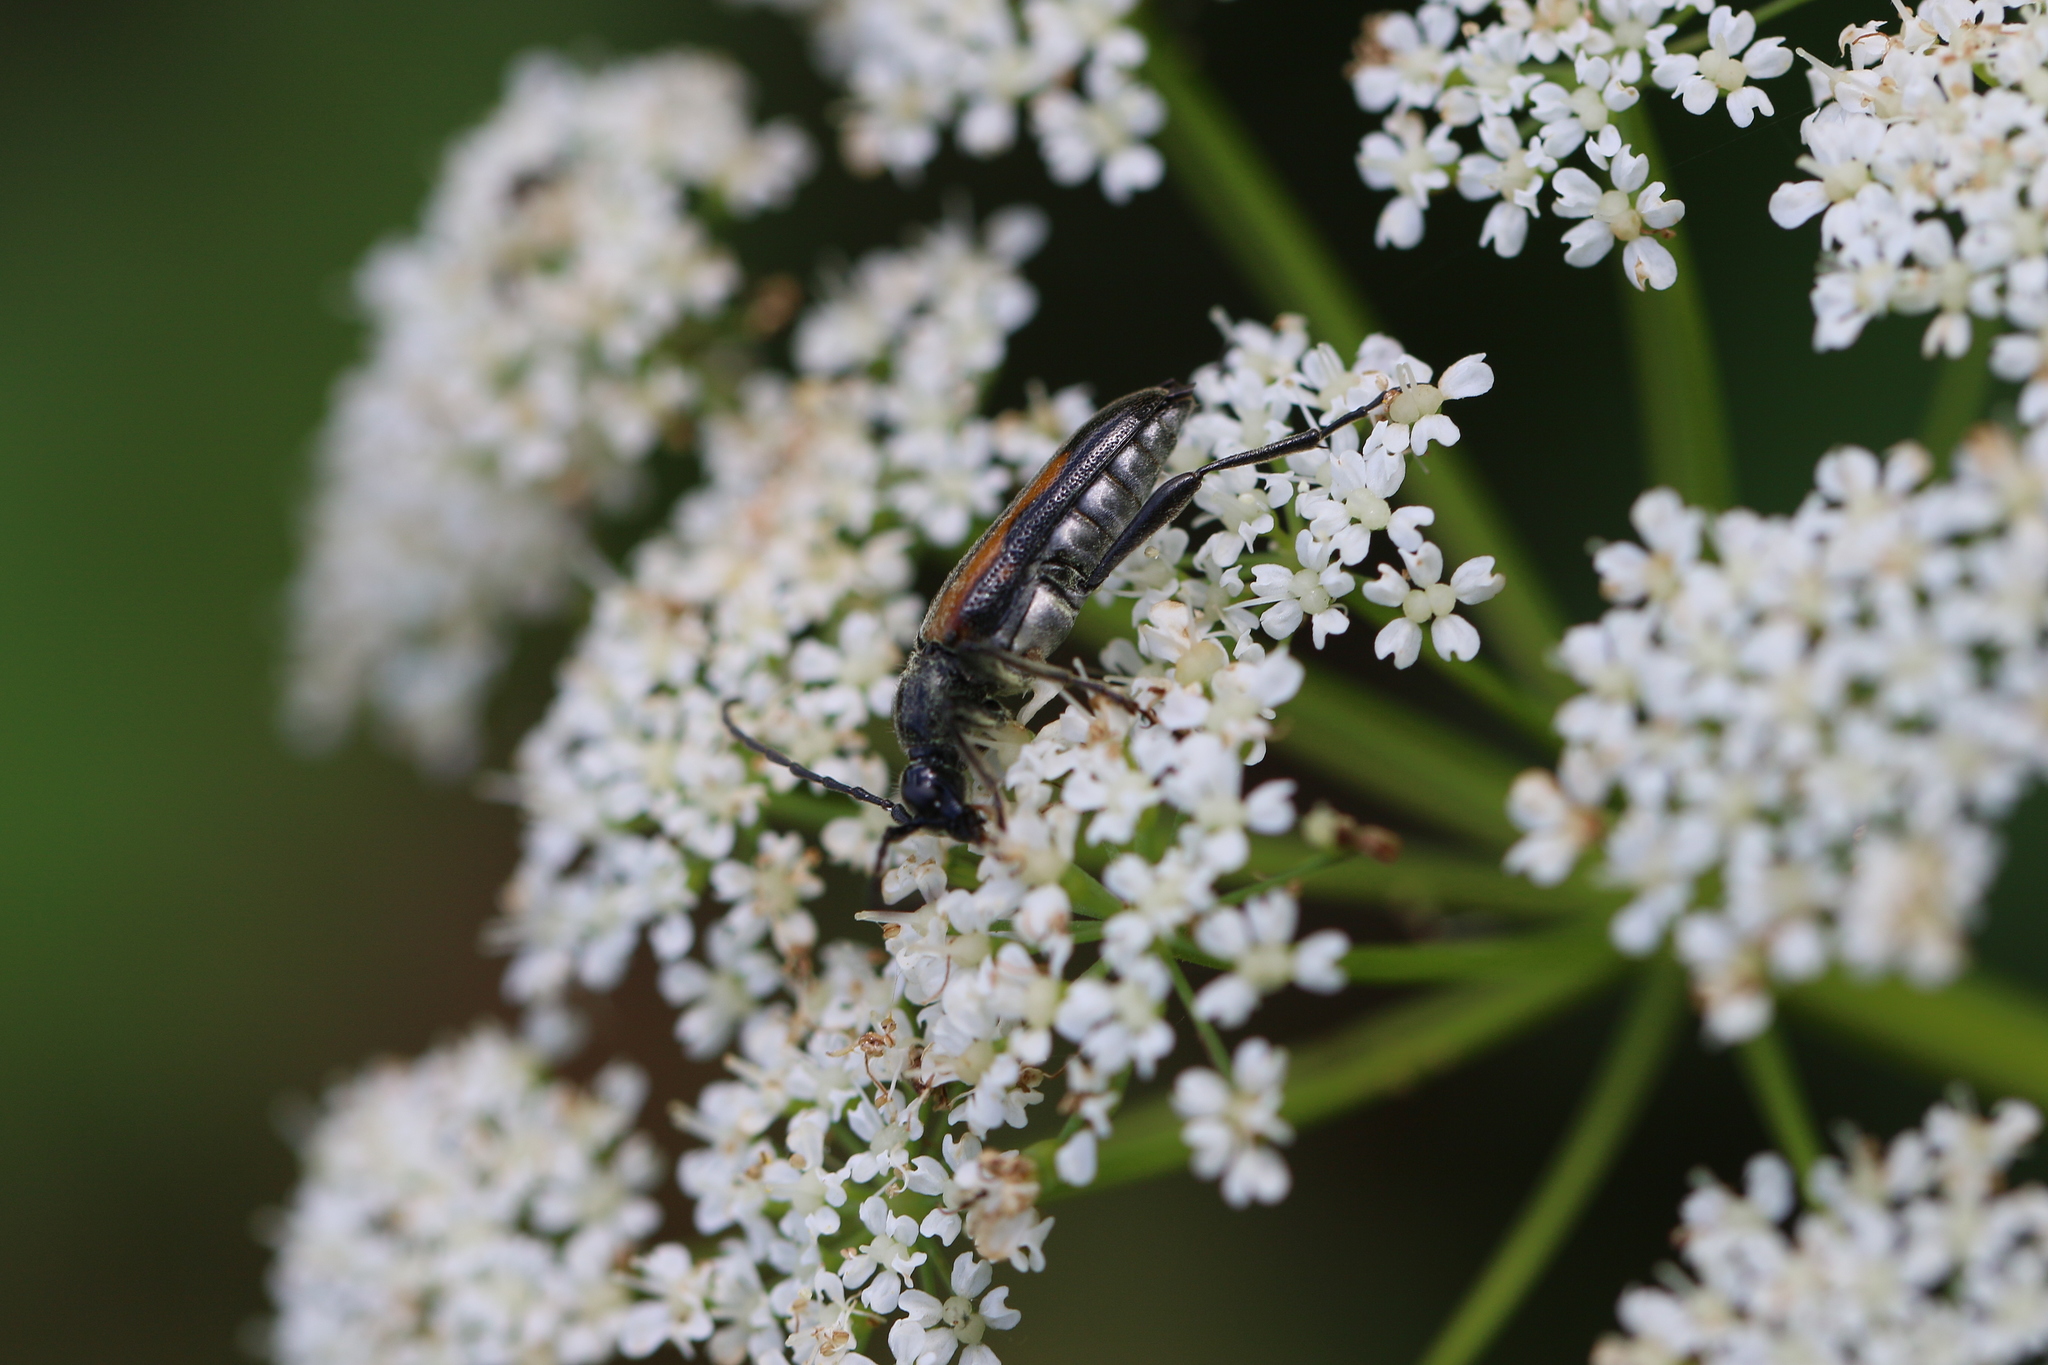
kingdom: Animalia
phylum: Arthropoda
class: Insecta
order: Coleoptera
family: Cerambycidae
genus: Strangalepta
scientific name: Strangalepta abbreviata
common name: Strangalepta flower longhorn beetle
